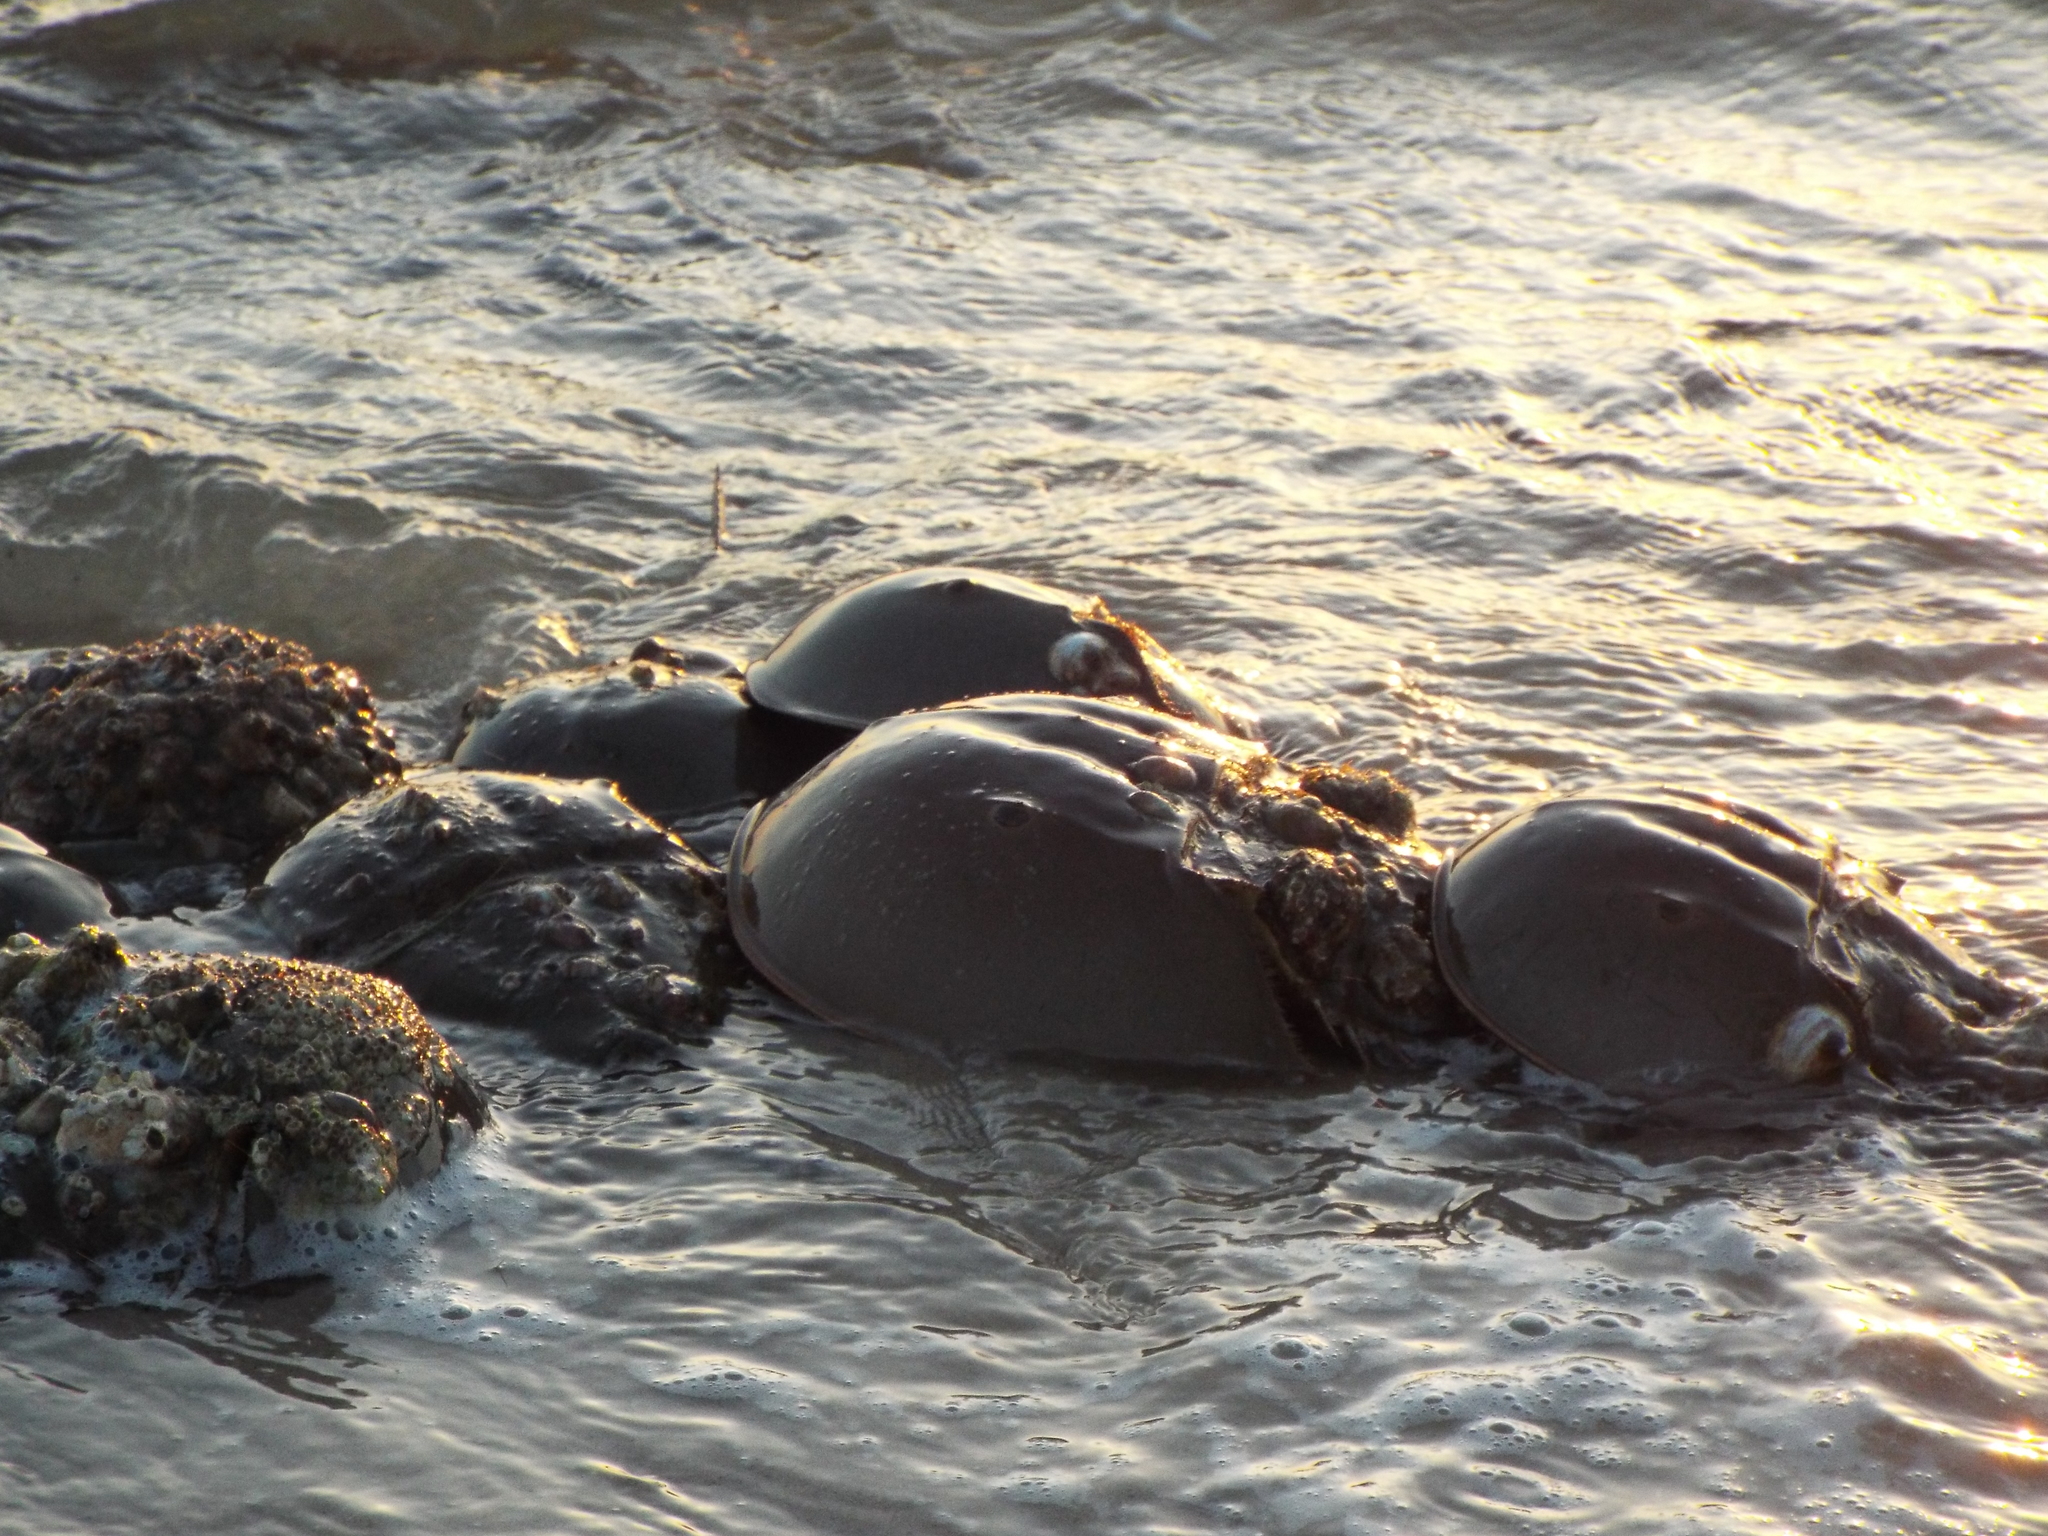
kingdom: Animalia
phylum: Arthropoda
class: Merostomata
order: Xiphosurida
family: Limulidae
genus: Limulus
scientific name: Limulus polyphemus
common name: Horseshoe crab
